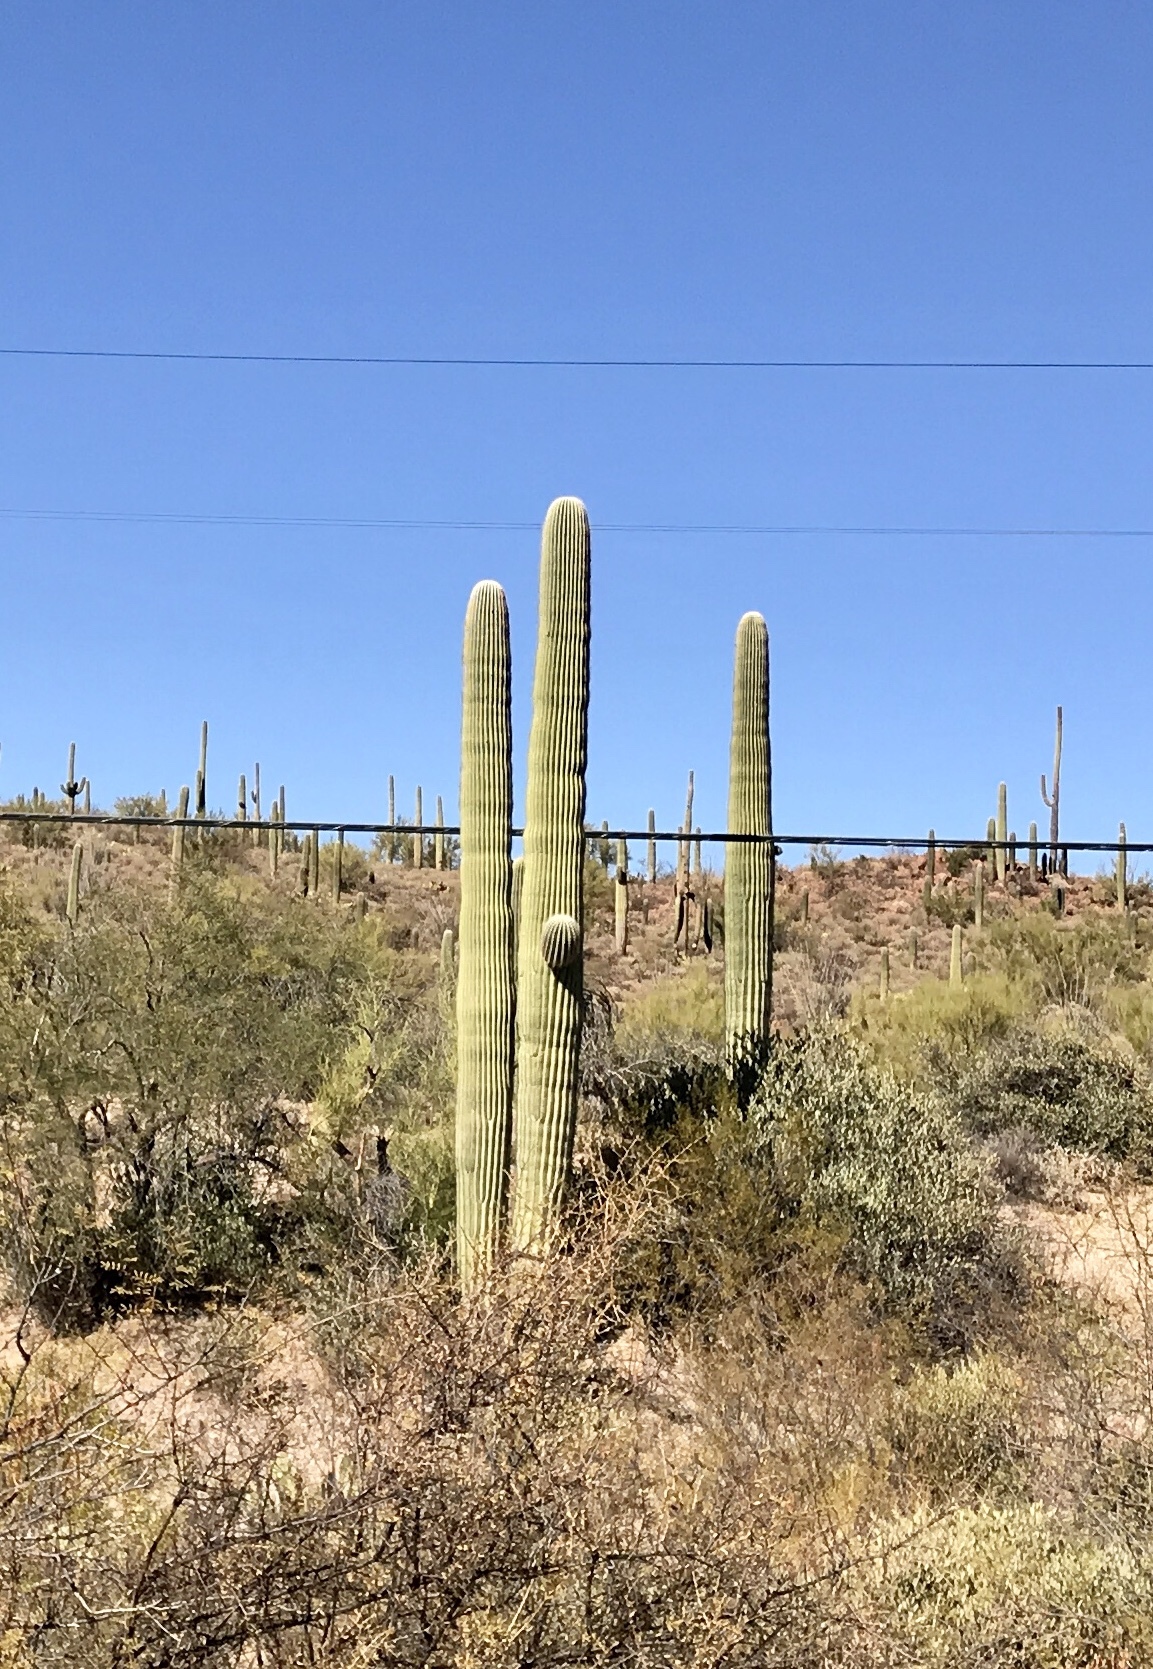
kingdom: Plantae
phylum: Tracheophyta
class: Magnoliopsida
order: Caryophyllales
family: Cactaceae
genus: Carnegiea
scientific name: Carnegiea gigantea
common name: Saguaro
